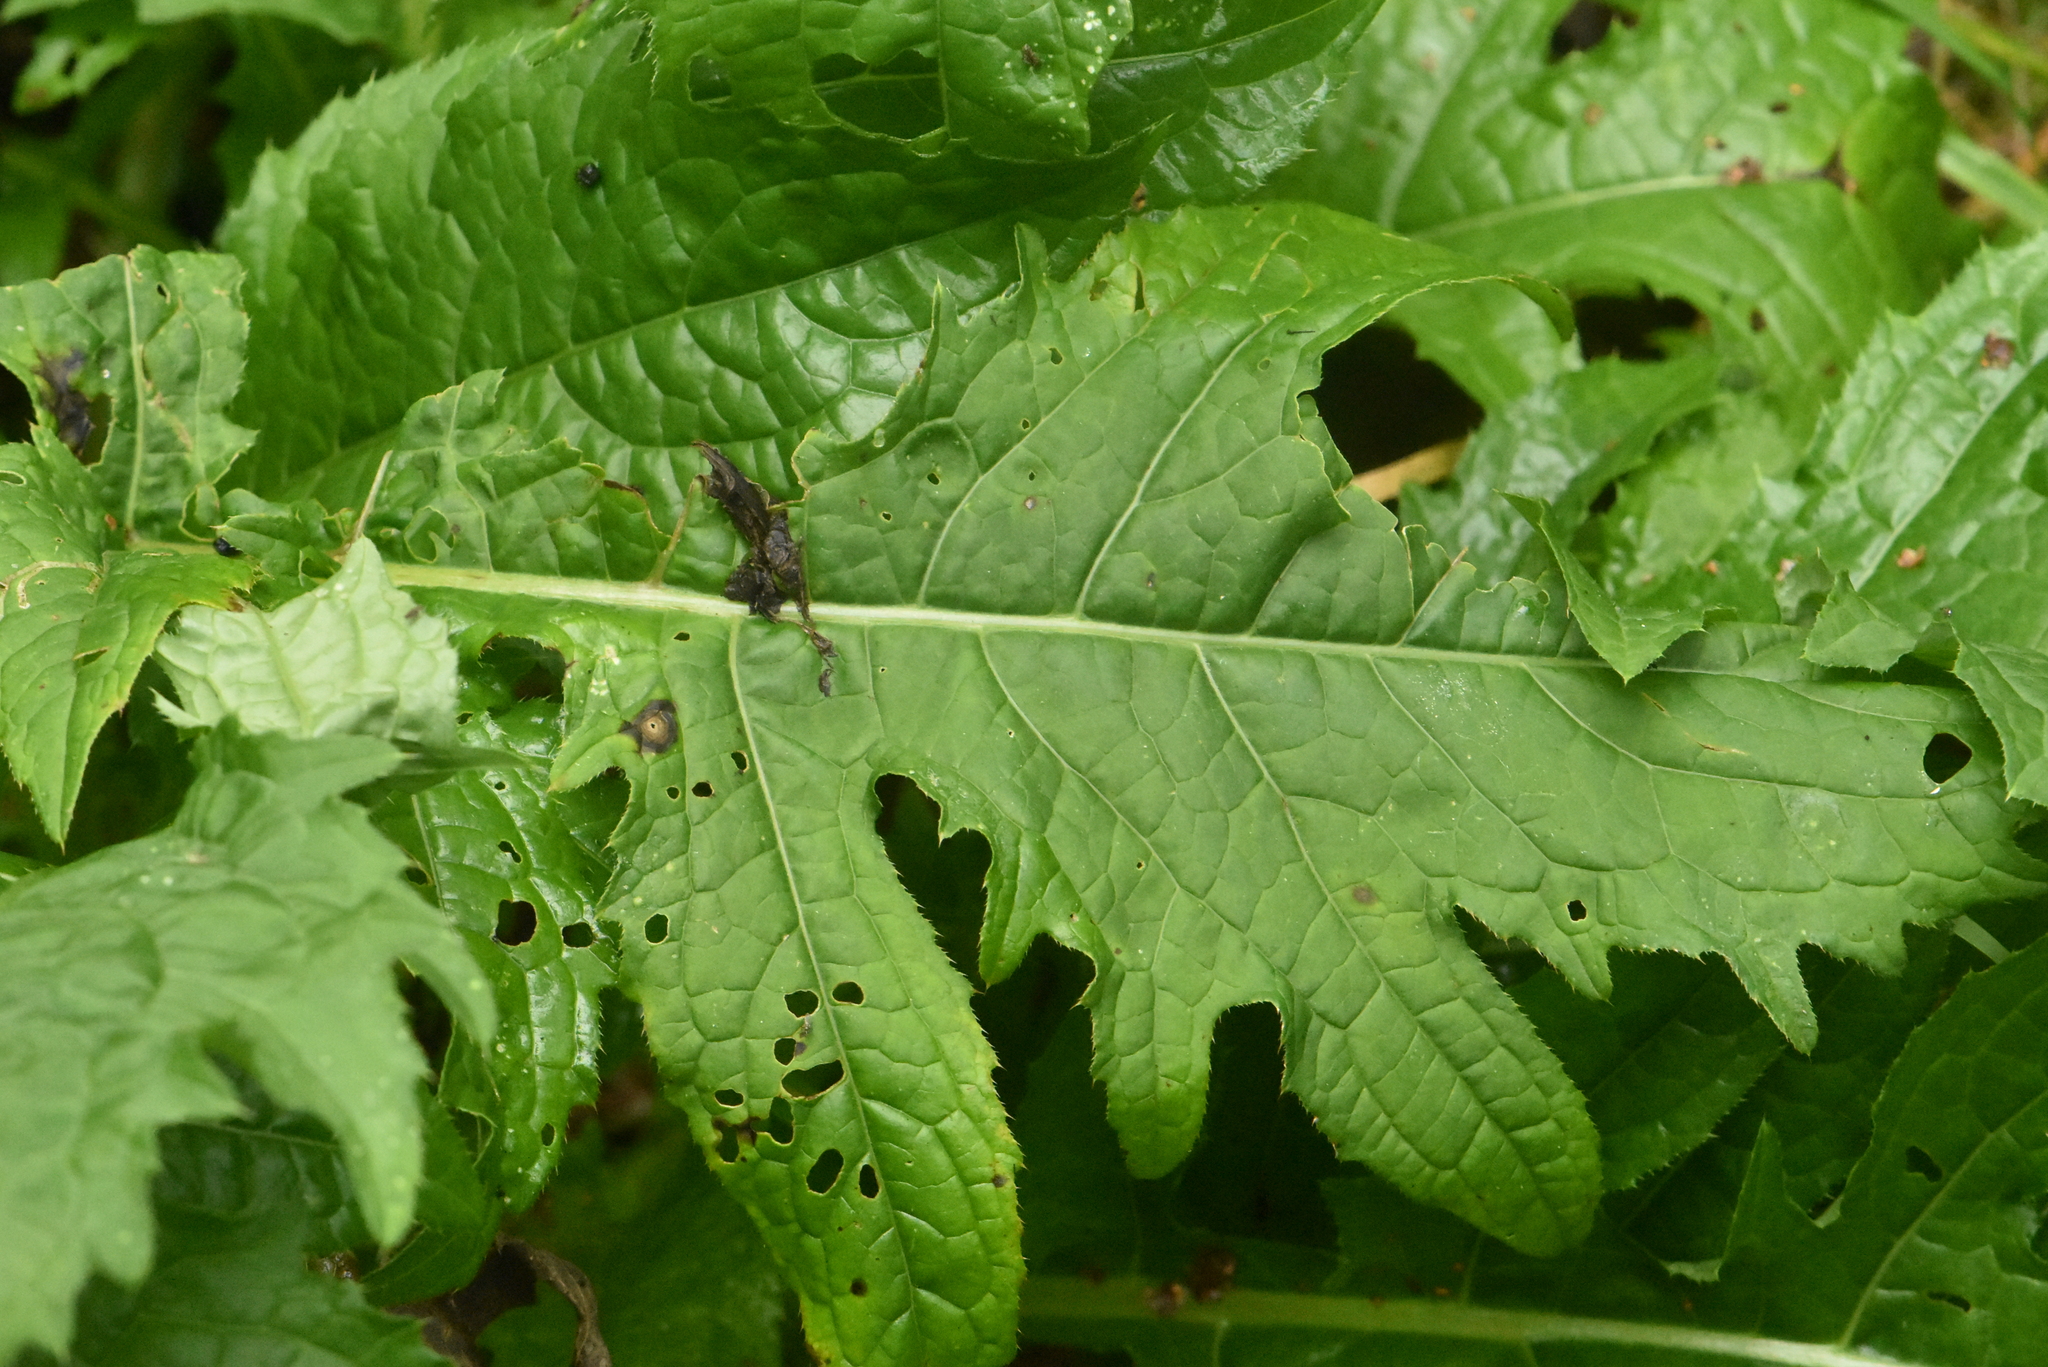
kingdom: Plantae
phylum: Tracheophyta
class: Magnoliopsida
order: Asterales
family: Asteraceae
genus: Cirsium
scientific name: Cirsium oleraceum
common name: Cabbage thistle
